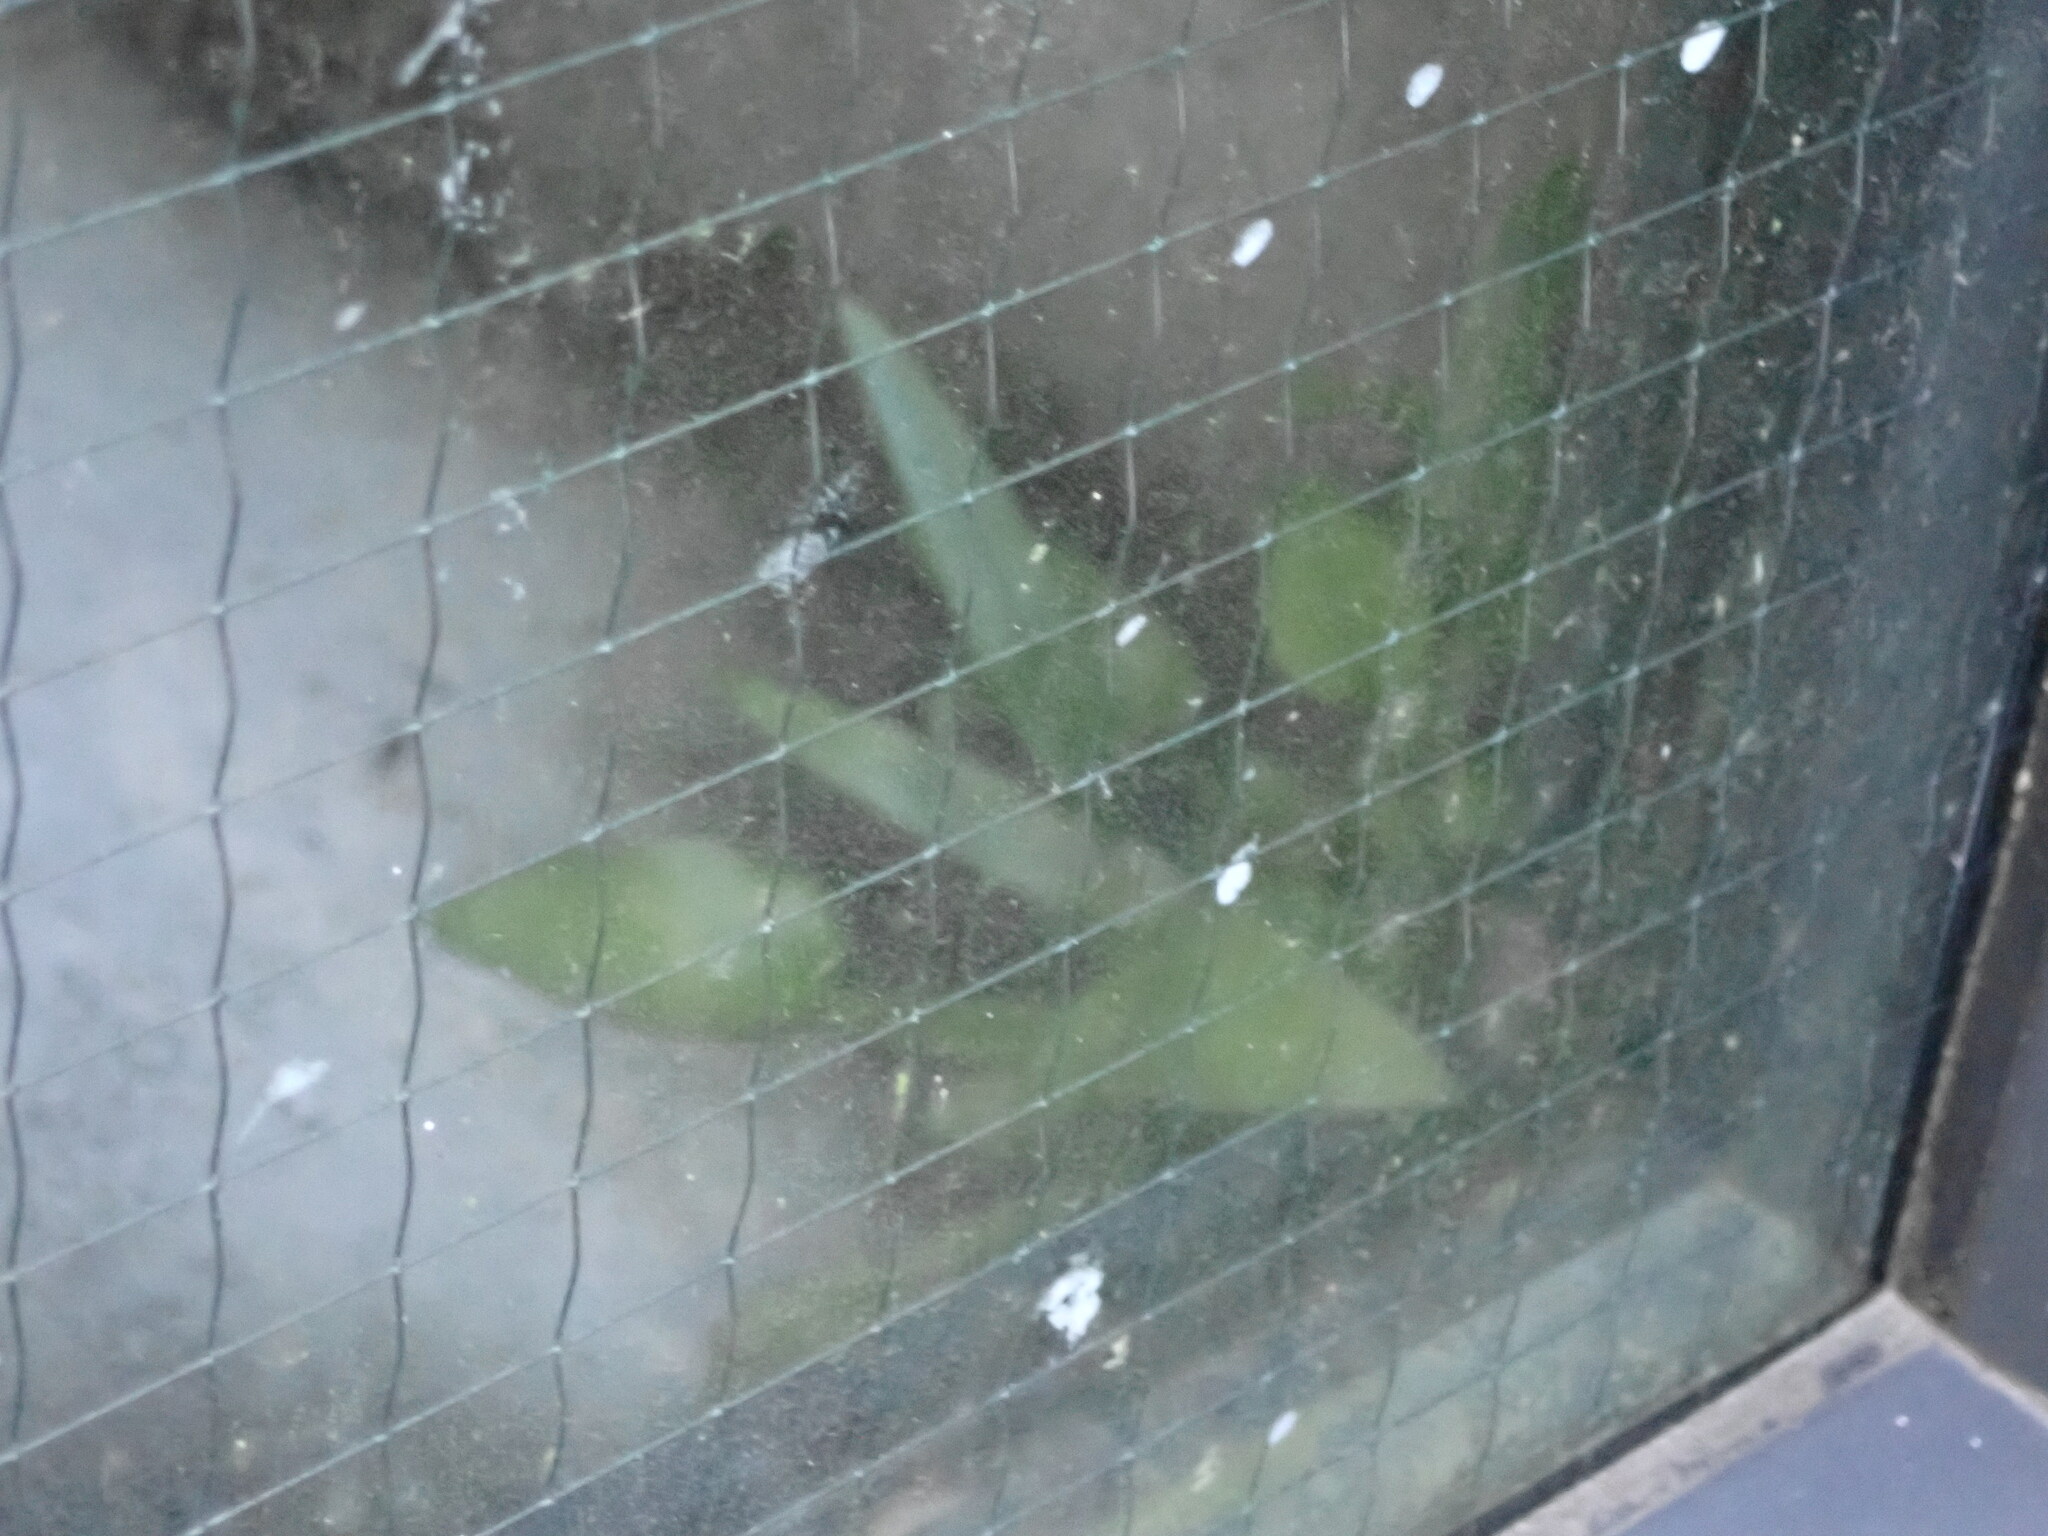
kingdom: Plantae
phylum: Tracheophyta
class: Polypodiopsida
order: Polypodiales
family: Aspleniaceae
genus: Asplenium
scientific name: Asplenium oblongifolium
